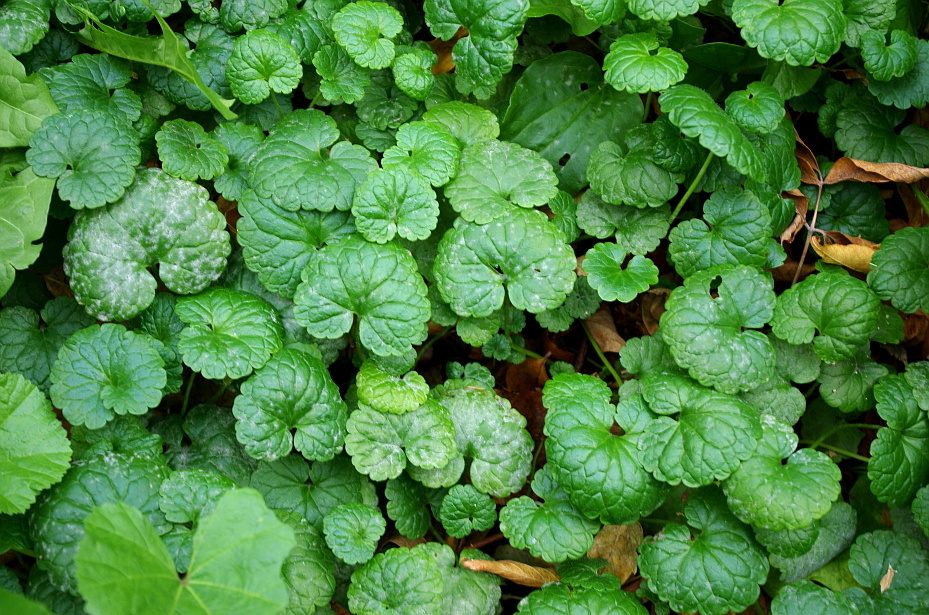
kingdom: Plantae
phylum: Tracheophyta
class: Magnoliopsida
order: Lamiales
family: Lamiaceae
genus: Glechoma
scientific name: Glechoma hederacea
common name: Ground ivy
